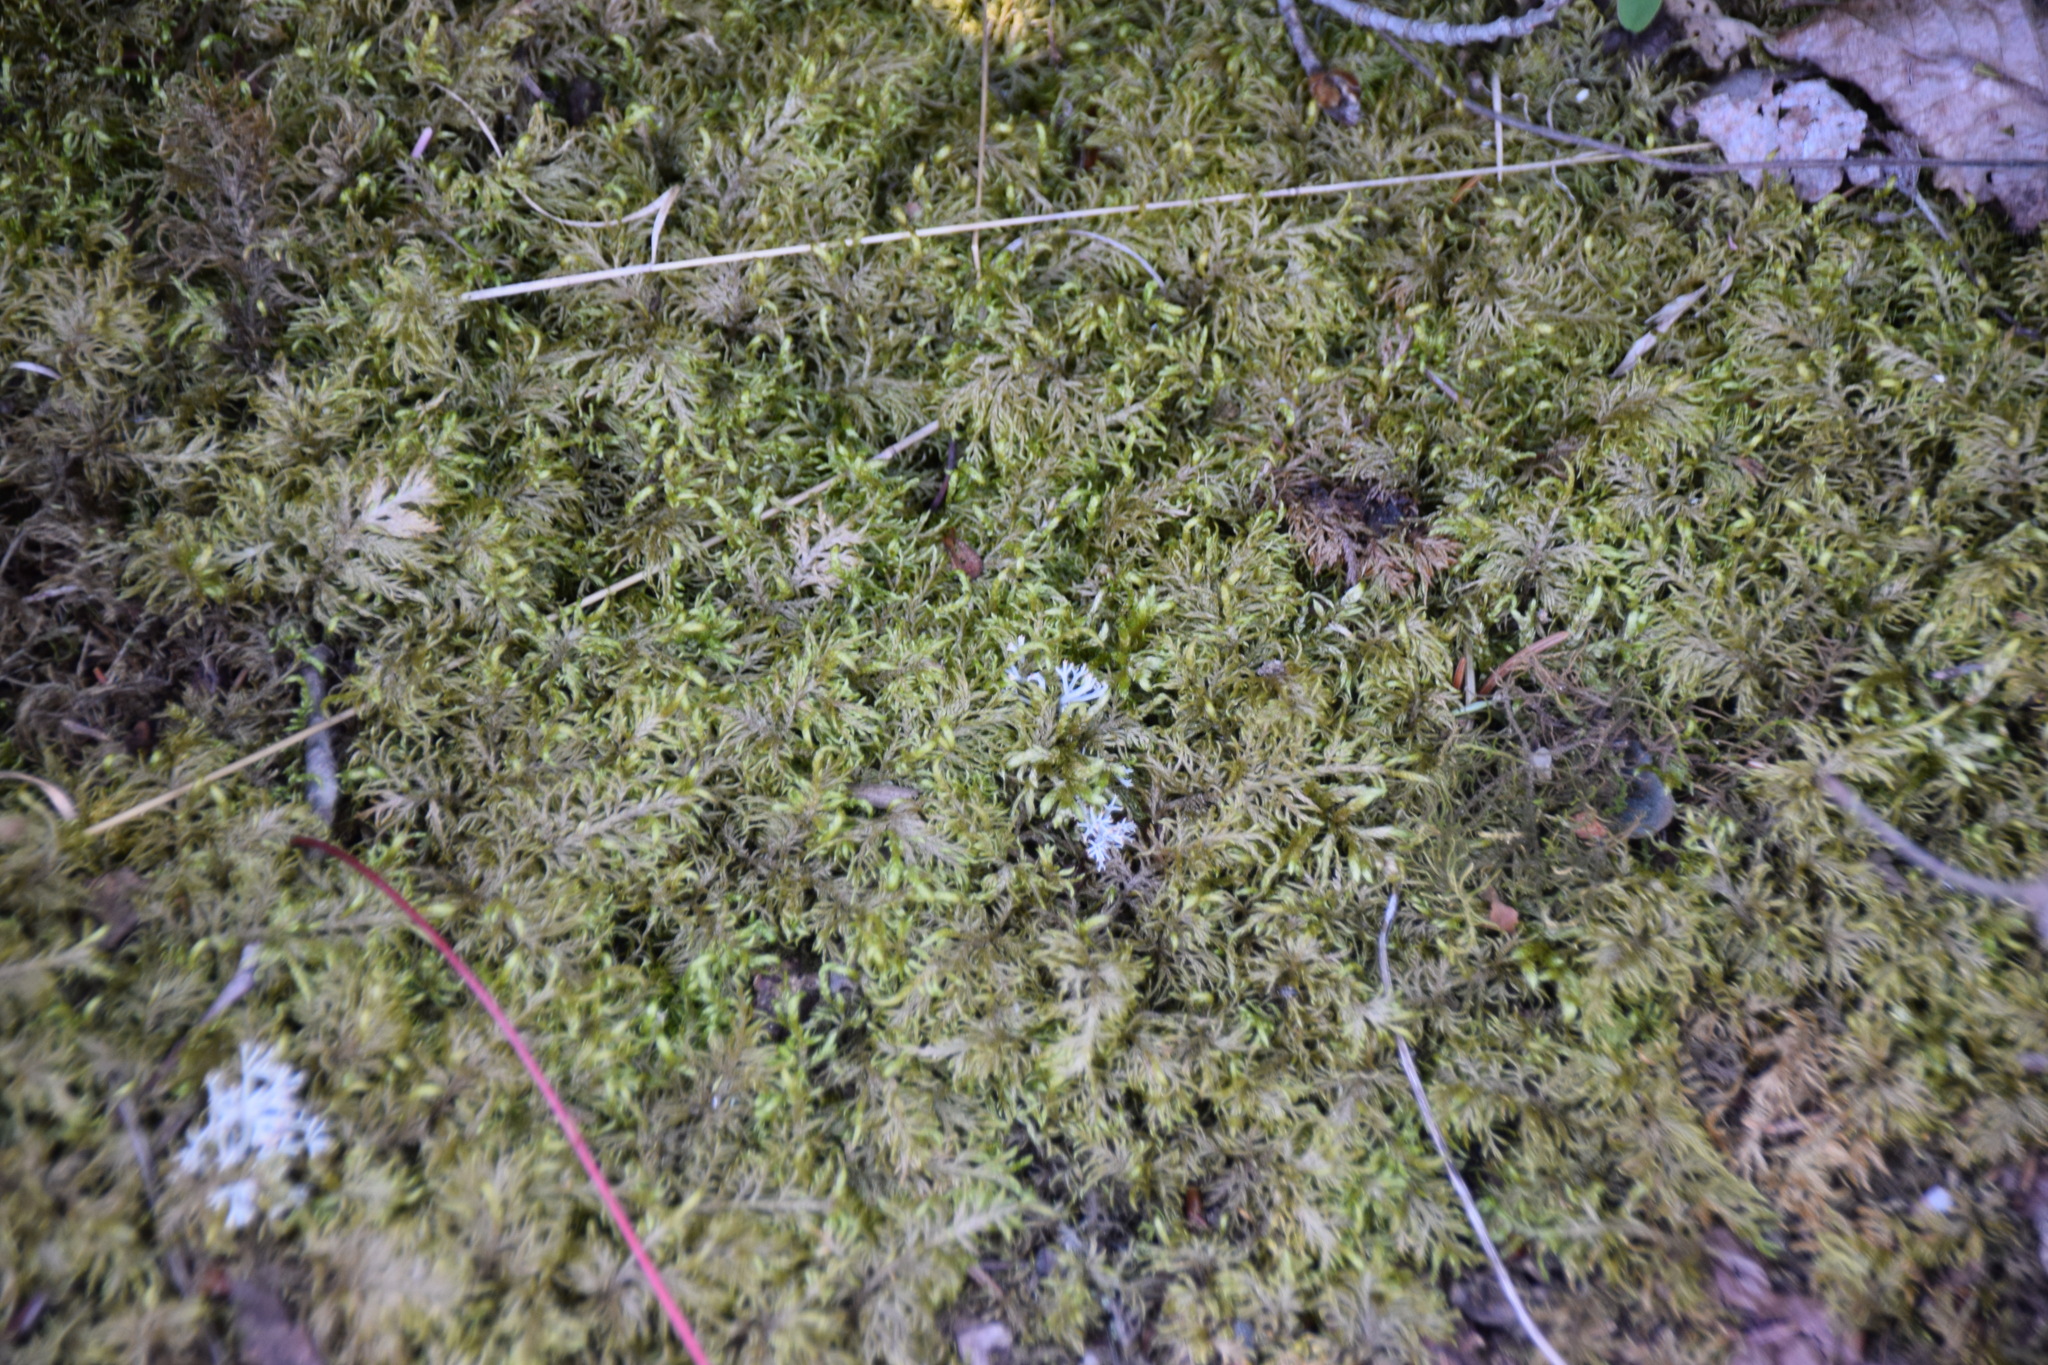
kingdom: Plantae
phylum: Bryophyta
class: Bryopsida
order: Hypnales
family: Hylocomiaceae
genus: Hylocomium
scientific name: Hylocomium splendens
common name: Stairstep moss
